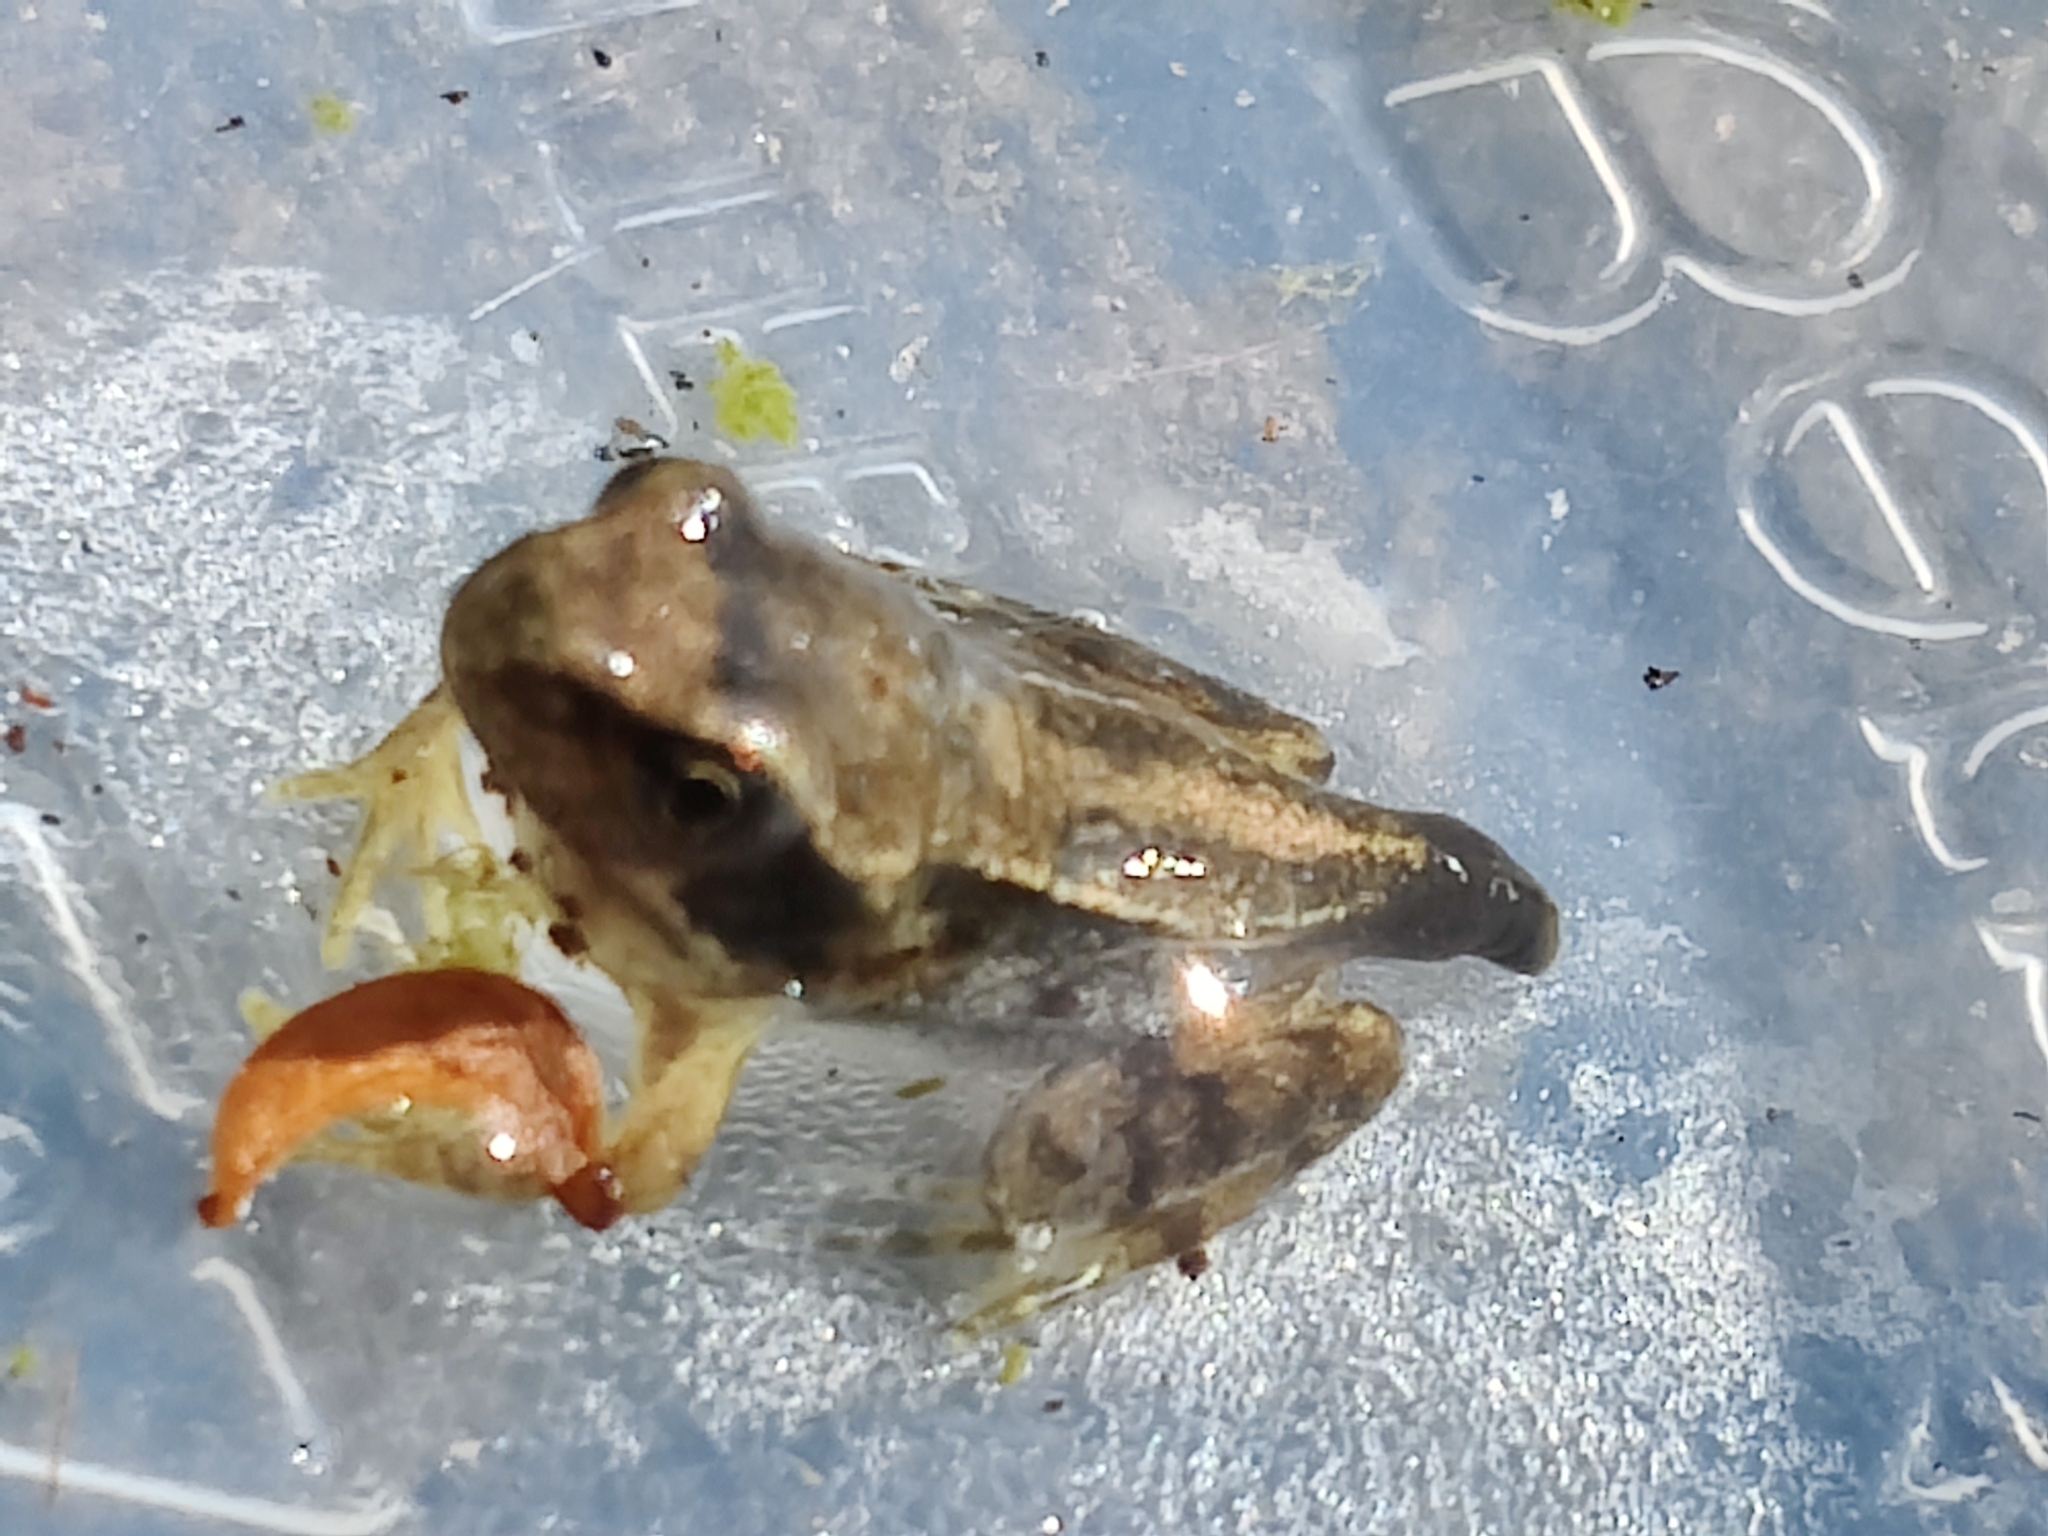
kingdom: Animalia
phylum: Chordata
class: Amphibia
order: Anura
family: Ranidae
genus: Rana
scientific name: Rana temporaria
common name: Common frog
